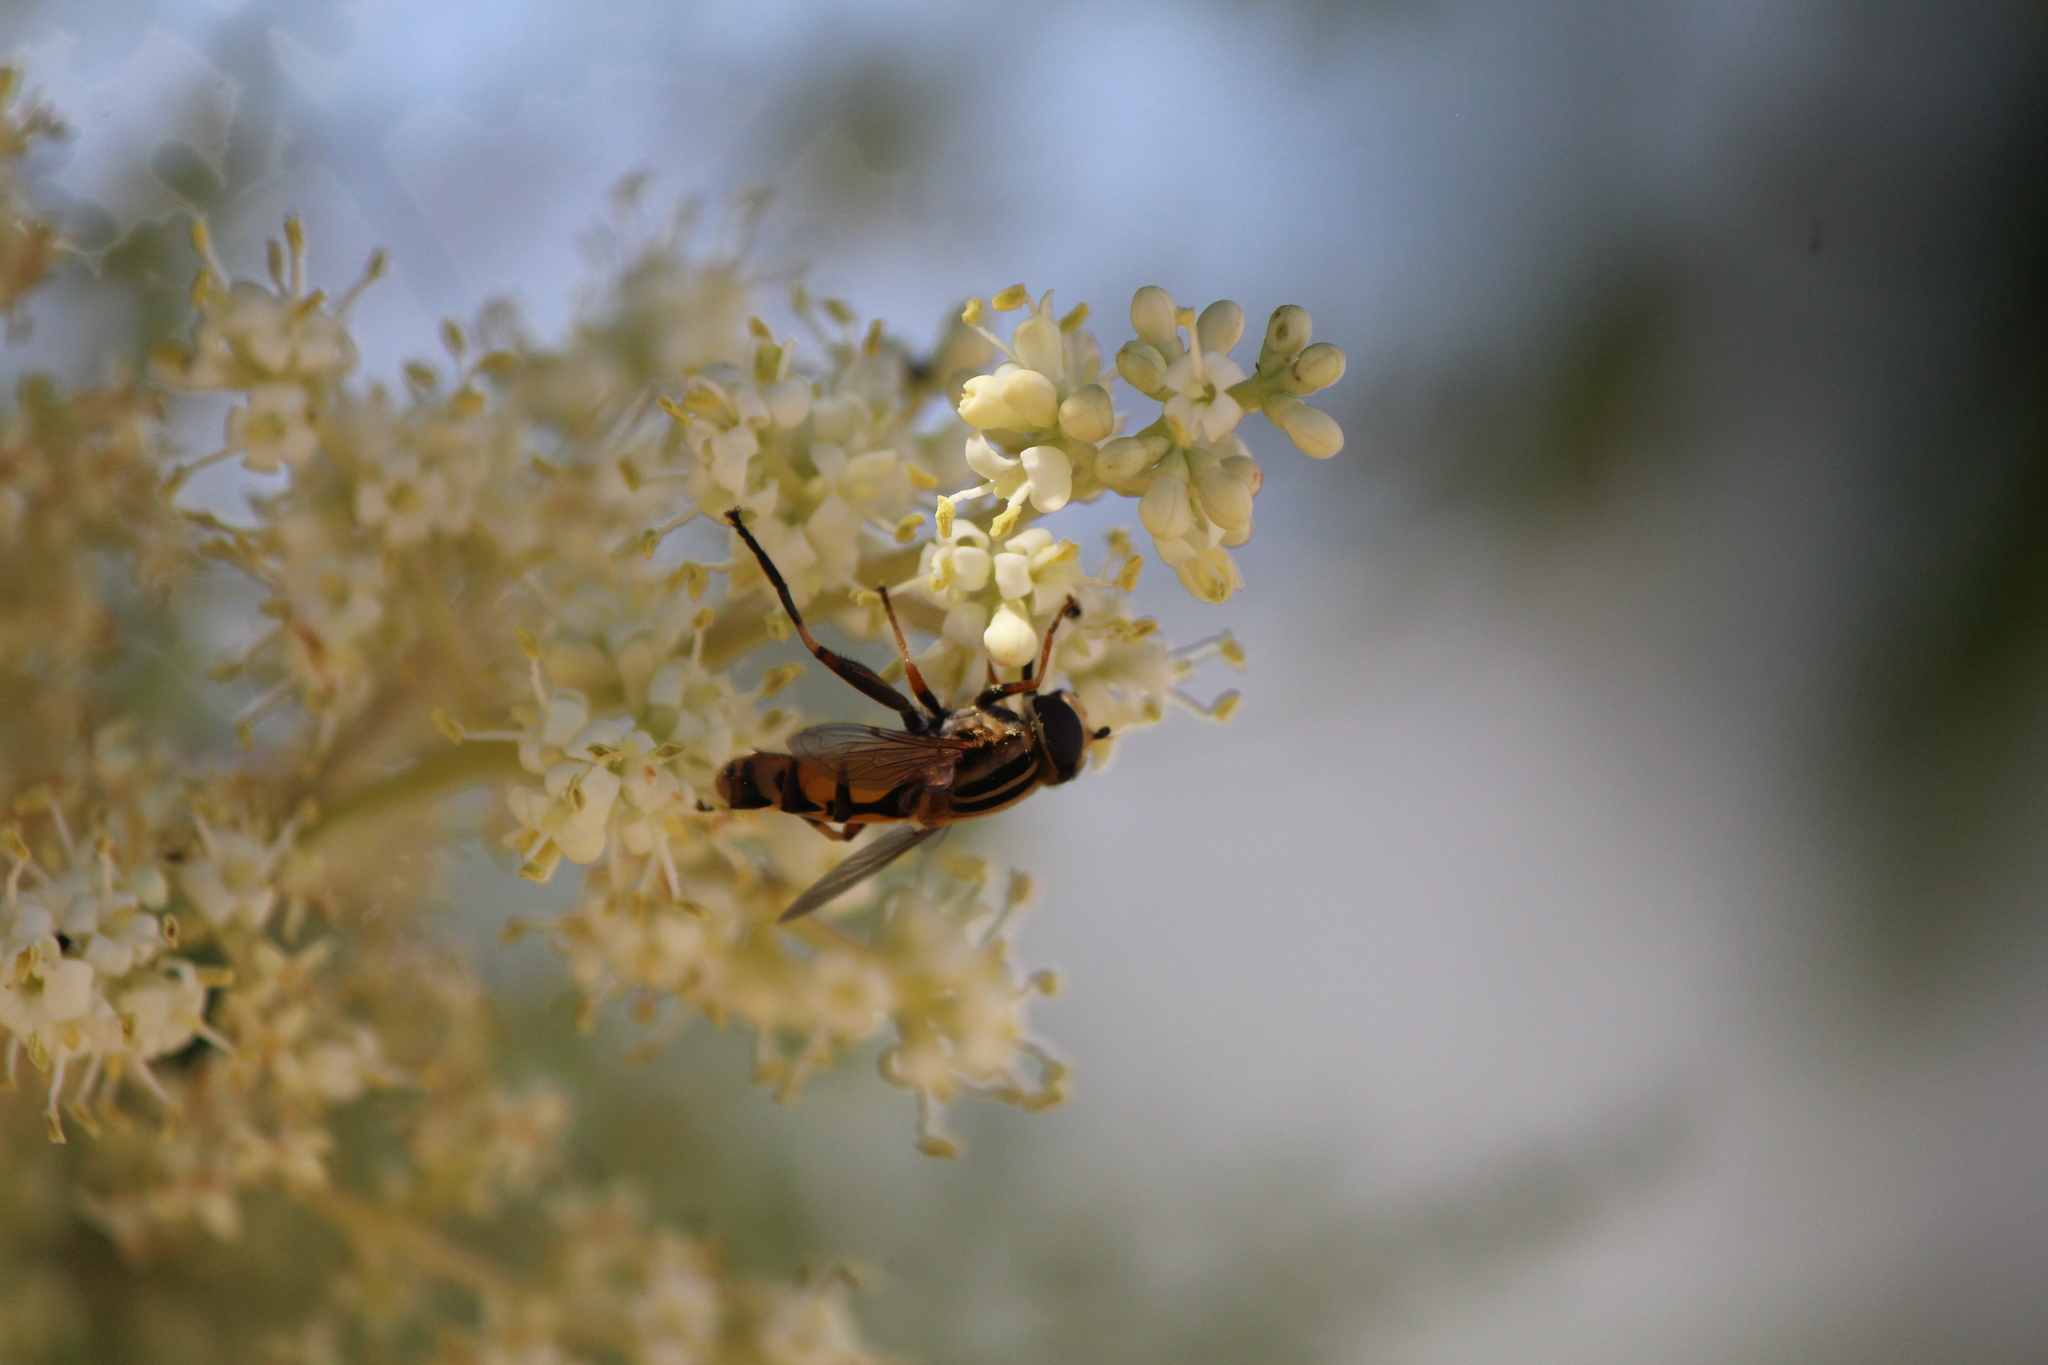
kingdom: Animalia
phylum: Arthropoda
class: Insecta
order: Diptera
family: Syrphidae
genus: Helophilus
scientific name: Helophilus latifrons
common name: Broad-headed marsh fly
